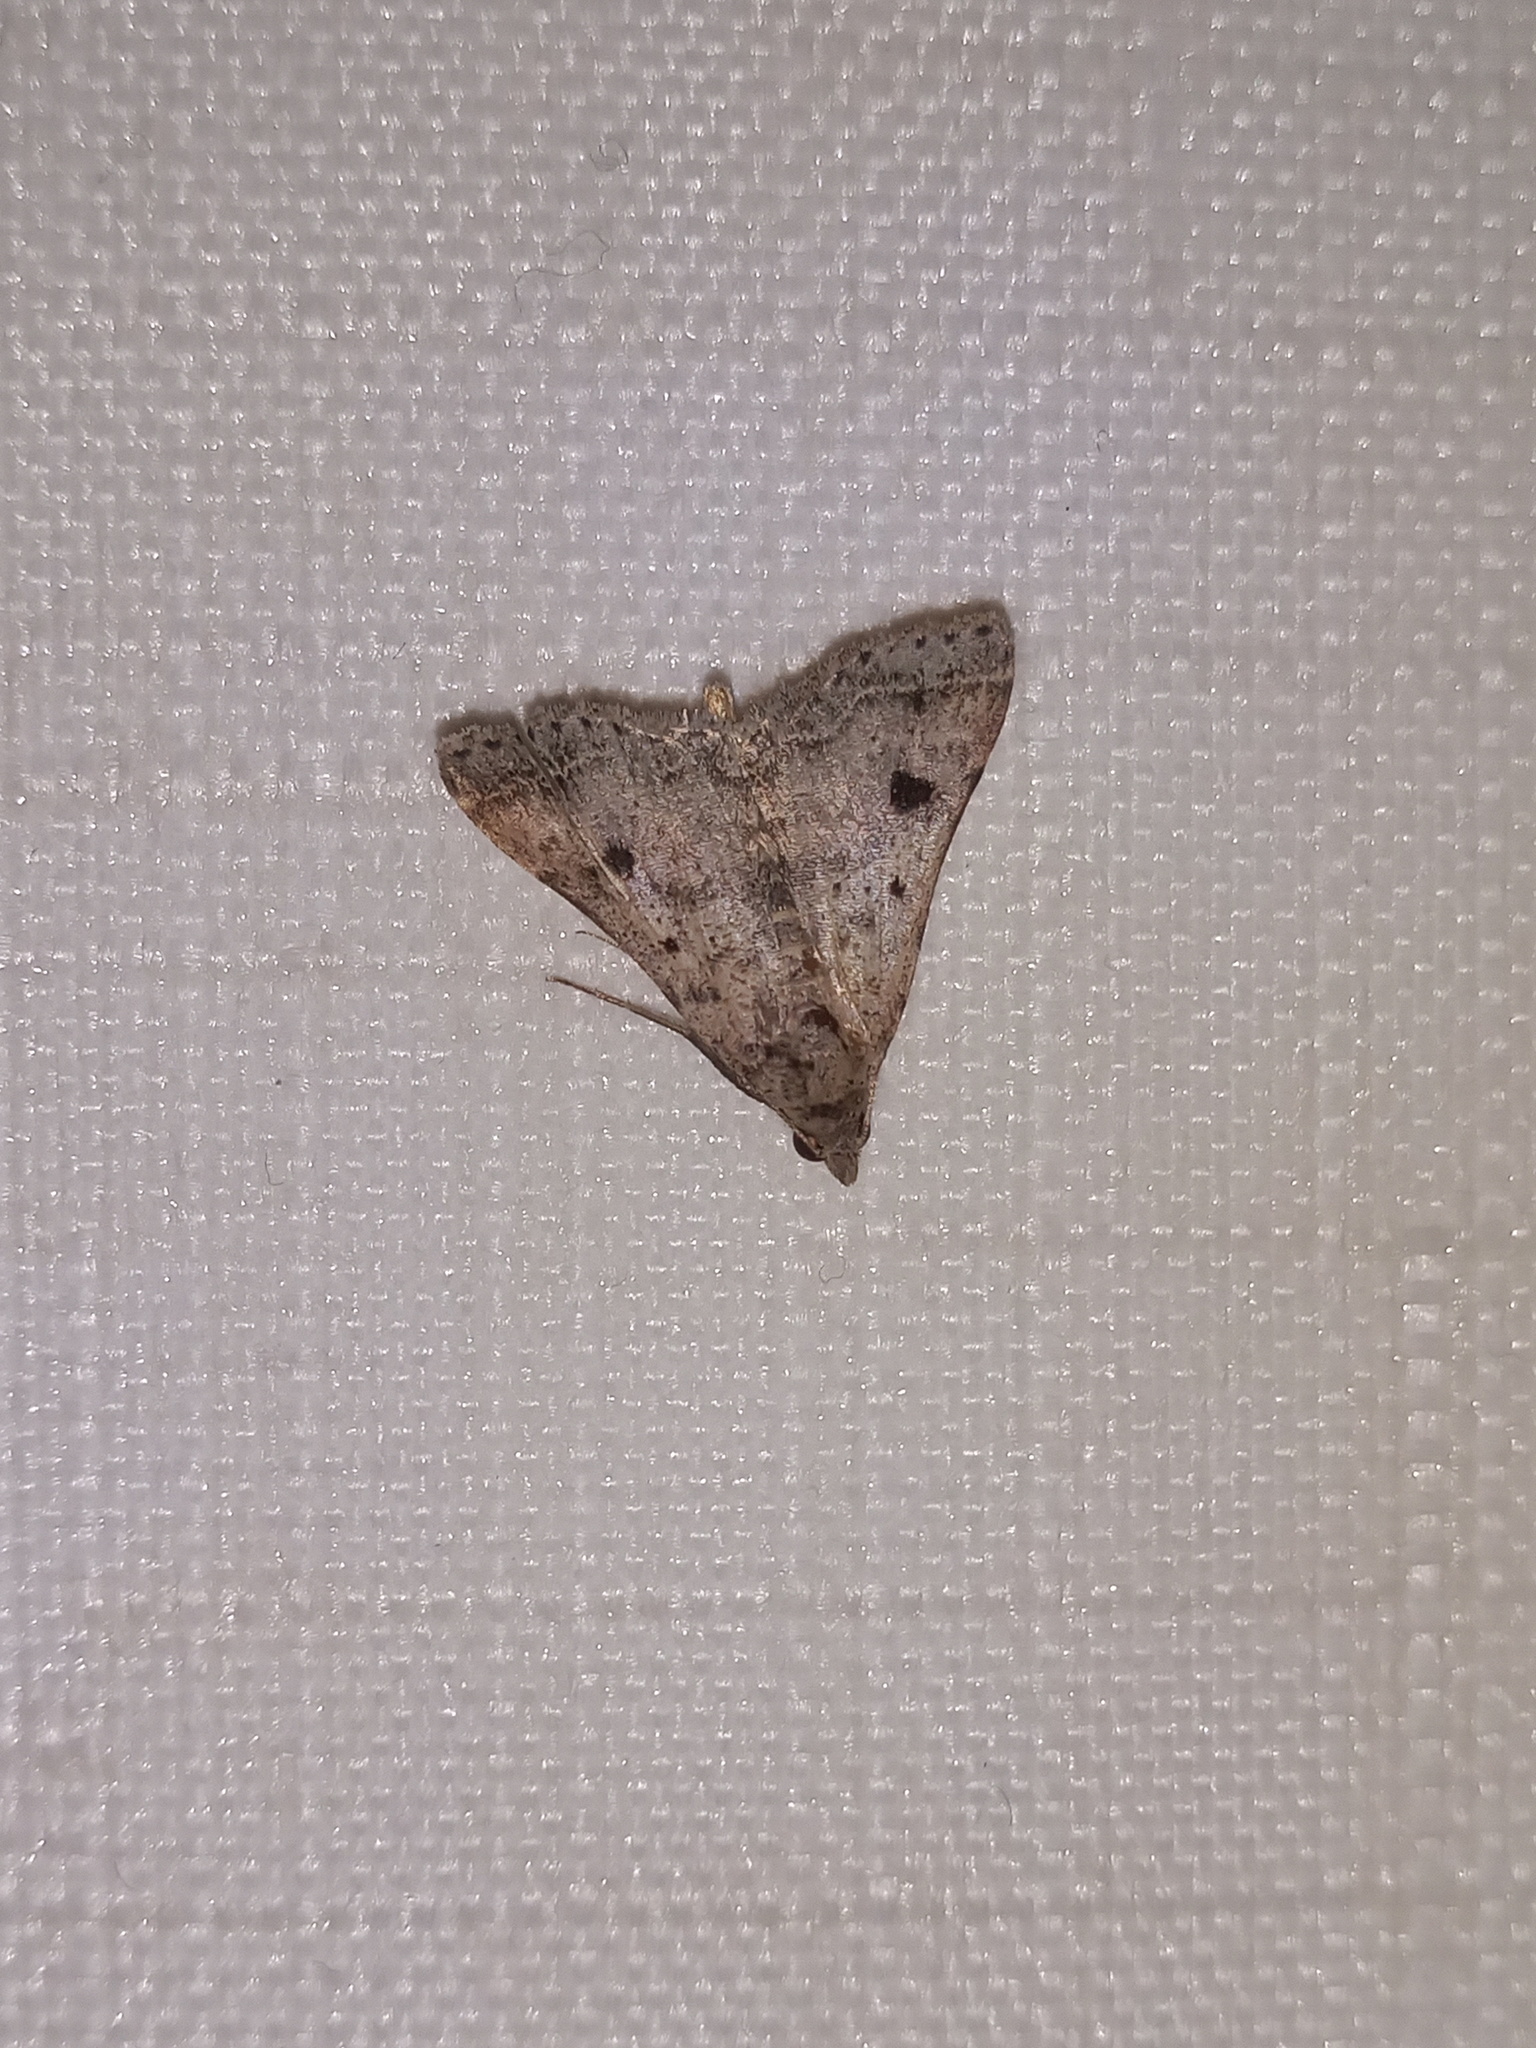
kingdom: Animalia
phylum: Arthropoda
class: Insecta
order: Lepidoptera
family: Erebidae
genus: Bleptina
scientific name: Bleptina caradrinalis
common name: Bent-winged owlet
